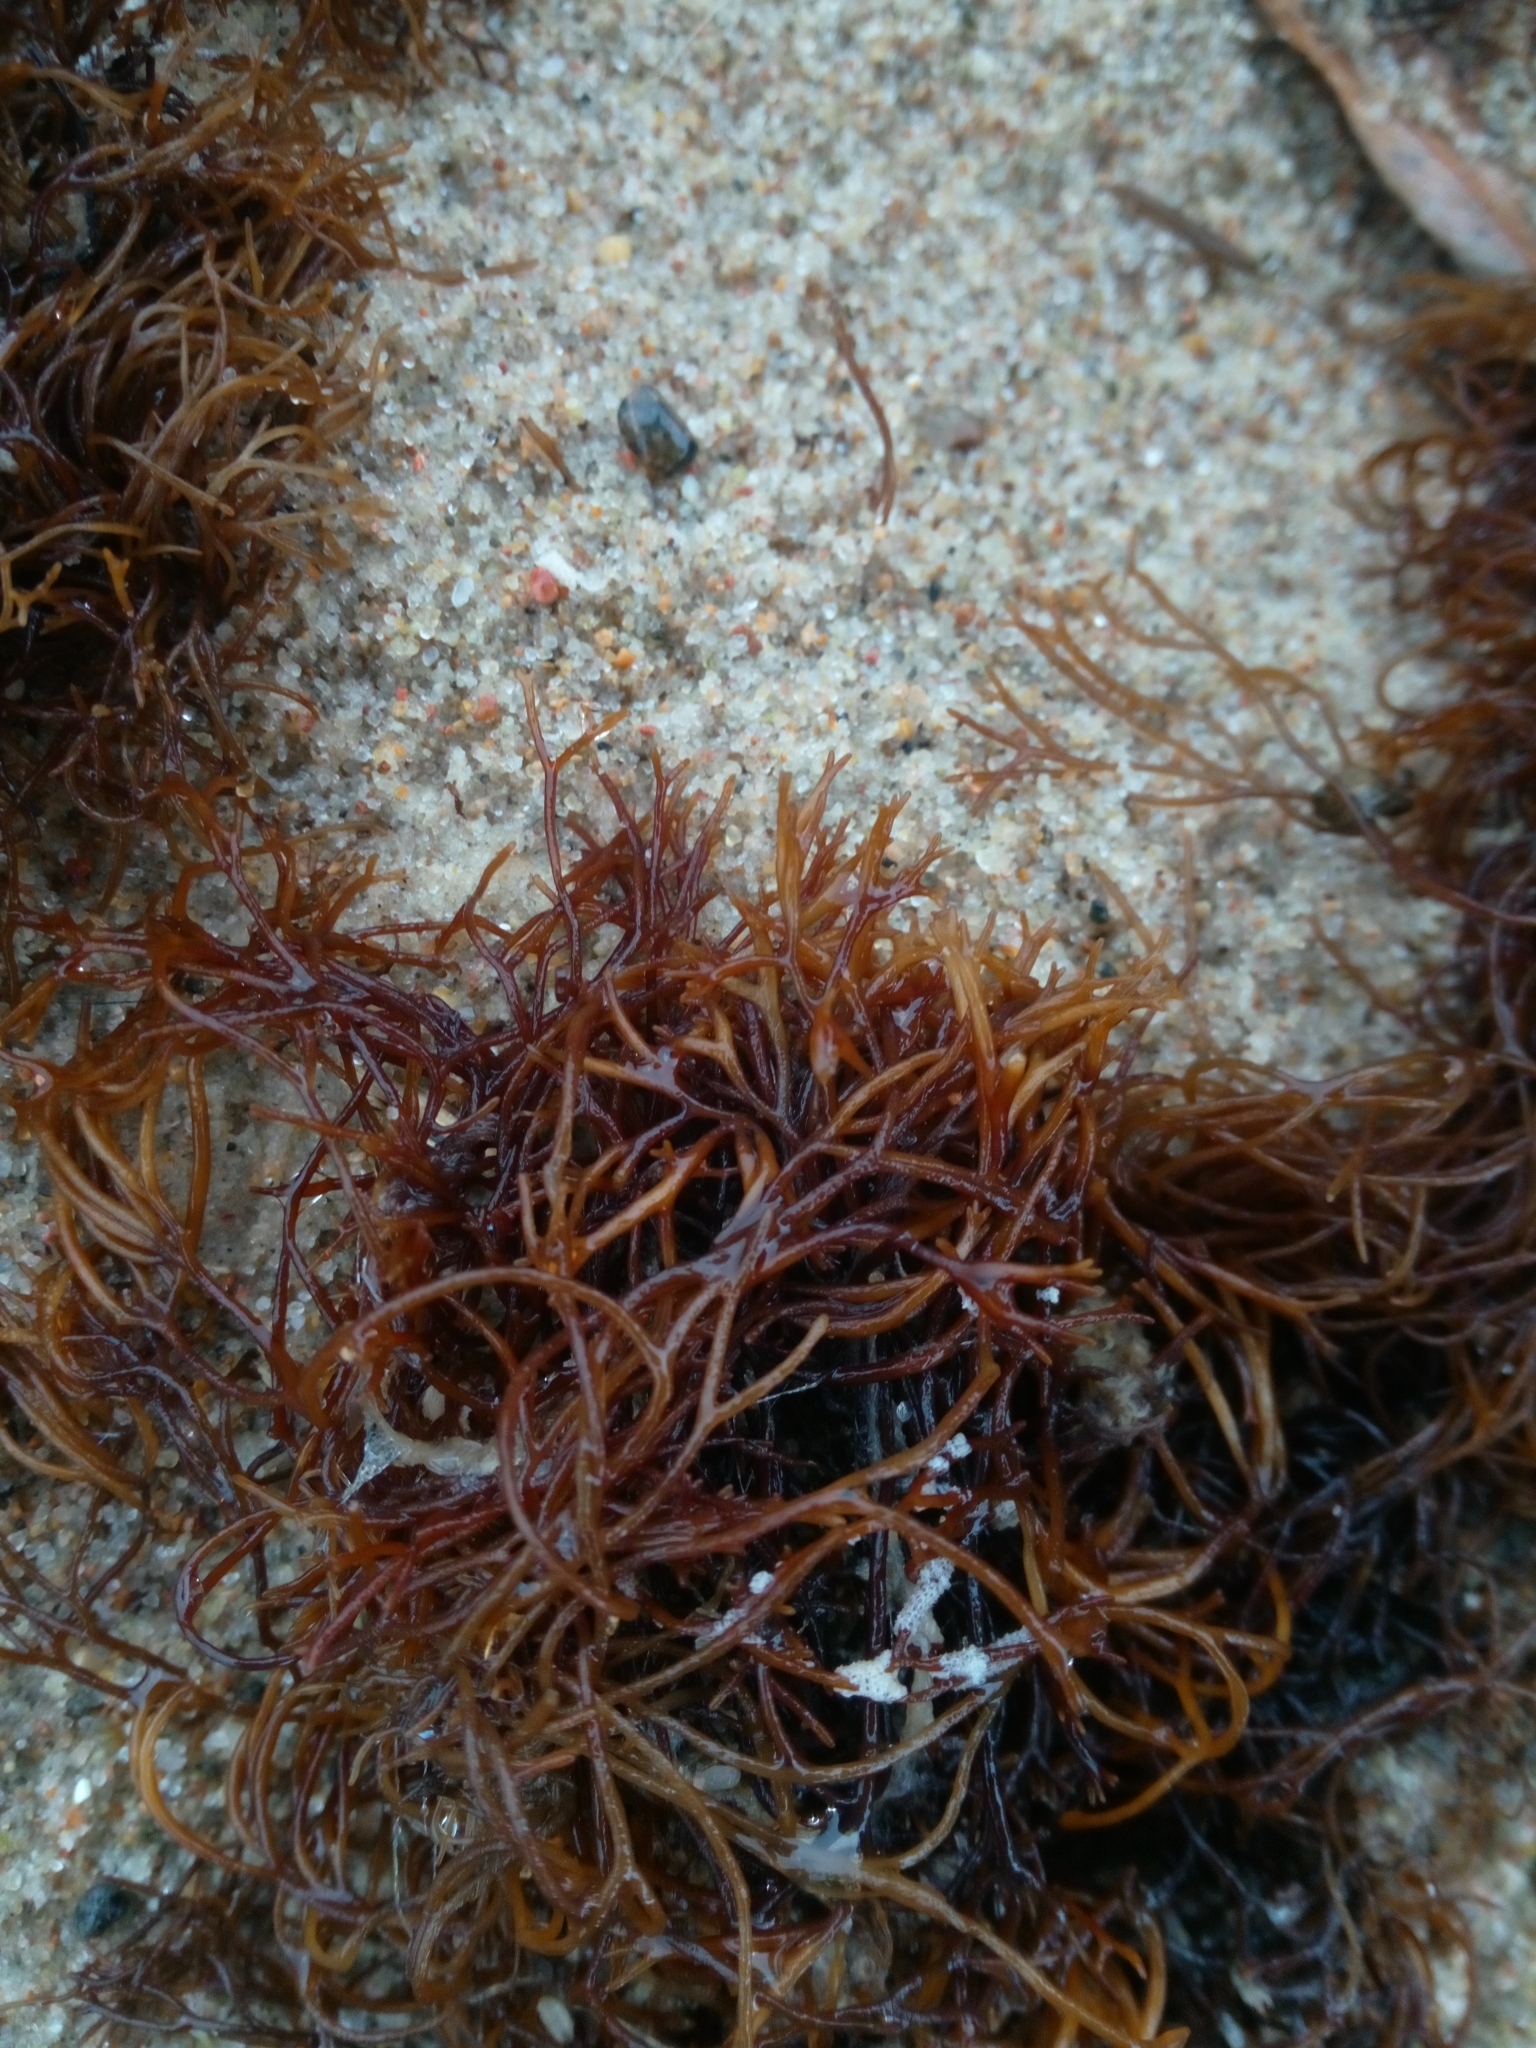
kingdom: Plantae
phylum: Rhodophyta
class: Florideophyceae
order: Gigartinales
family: Furcellariaceae
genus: Furcellaria
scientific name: Furcellaria lumbricalis
